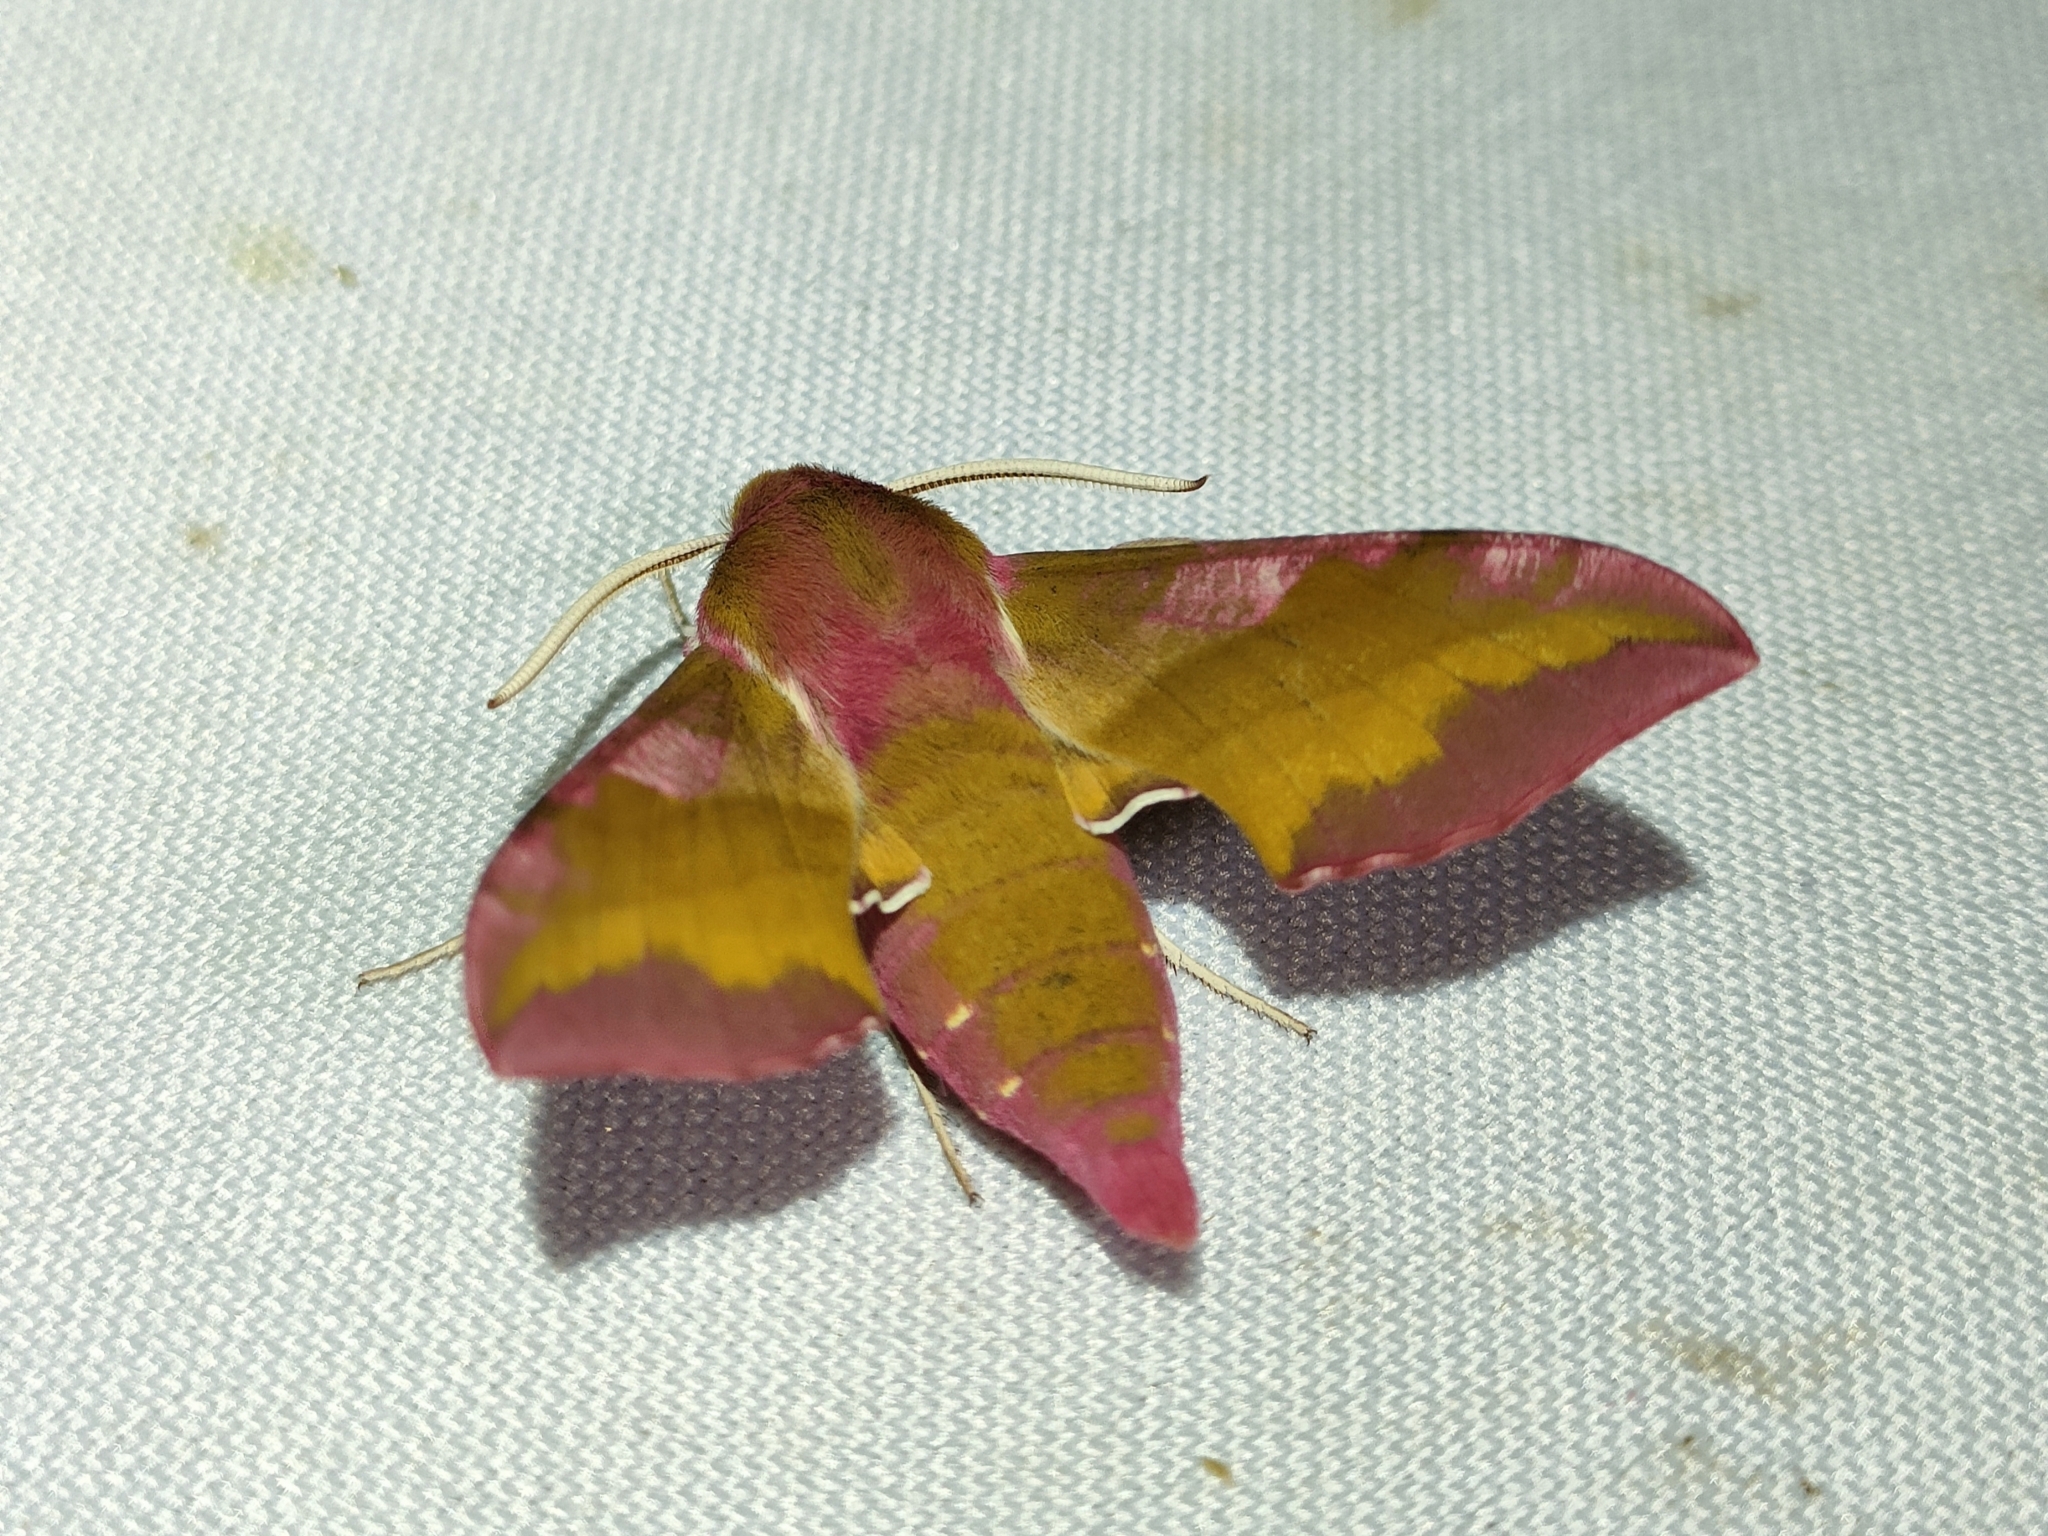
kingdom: Animalia
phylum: Arthropoda
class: Insecta
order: Lepidoptera
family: Sphingidae
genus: Deilephila
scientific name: Deilephila porcellus
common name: Small elephant hawk-moth
